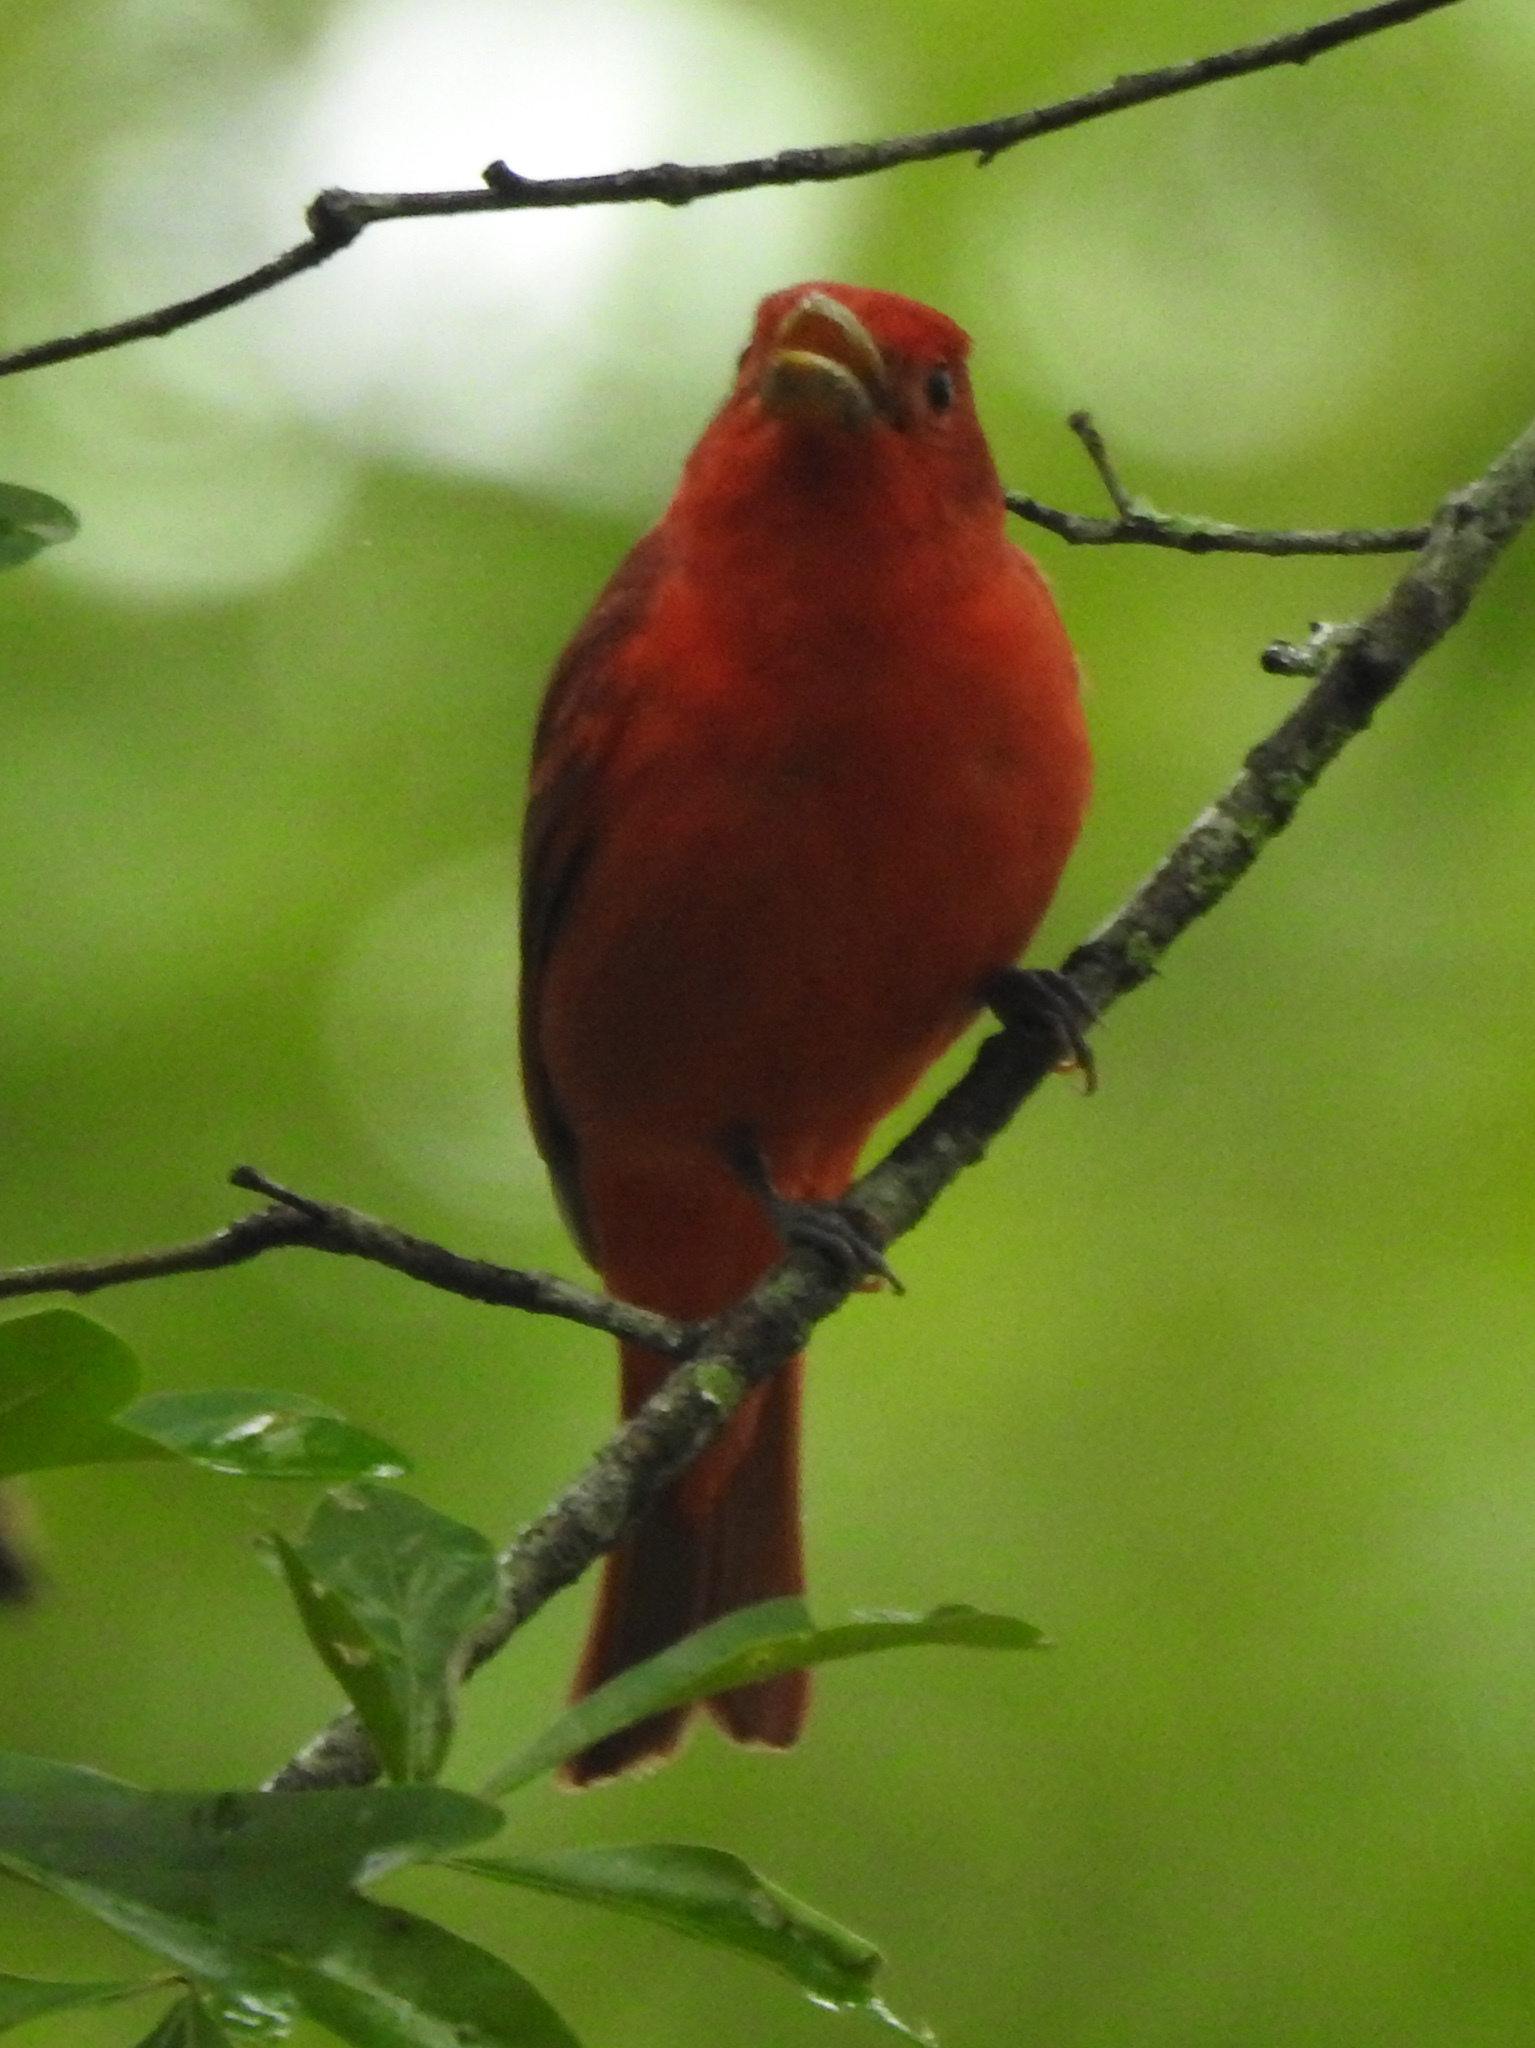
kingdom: Animalia
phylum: Chordata
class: Aves
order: Passeriformes
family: Cardinalidae
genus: Piranga
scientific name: Piranga rubra
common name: Summer tanager
